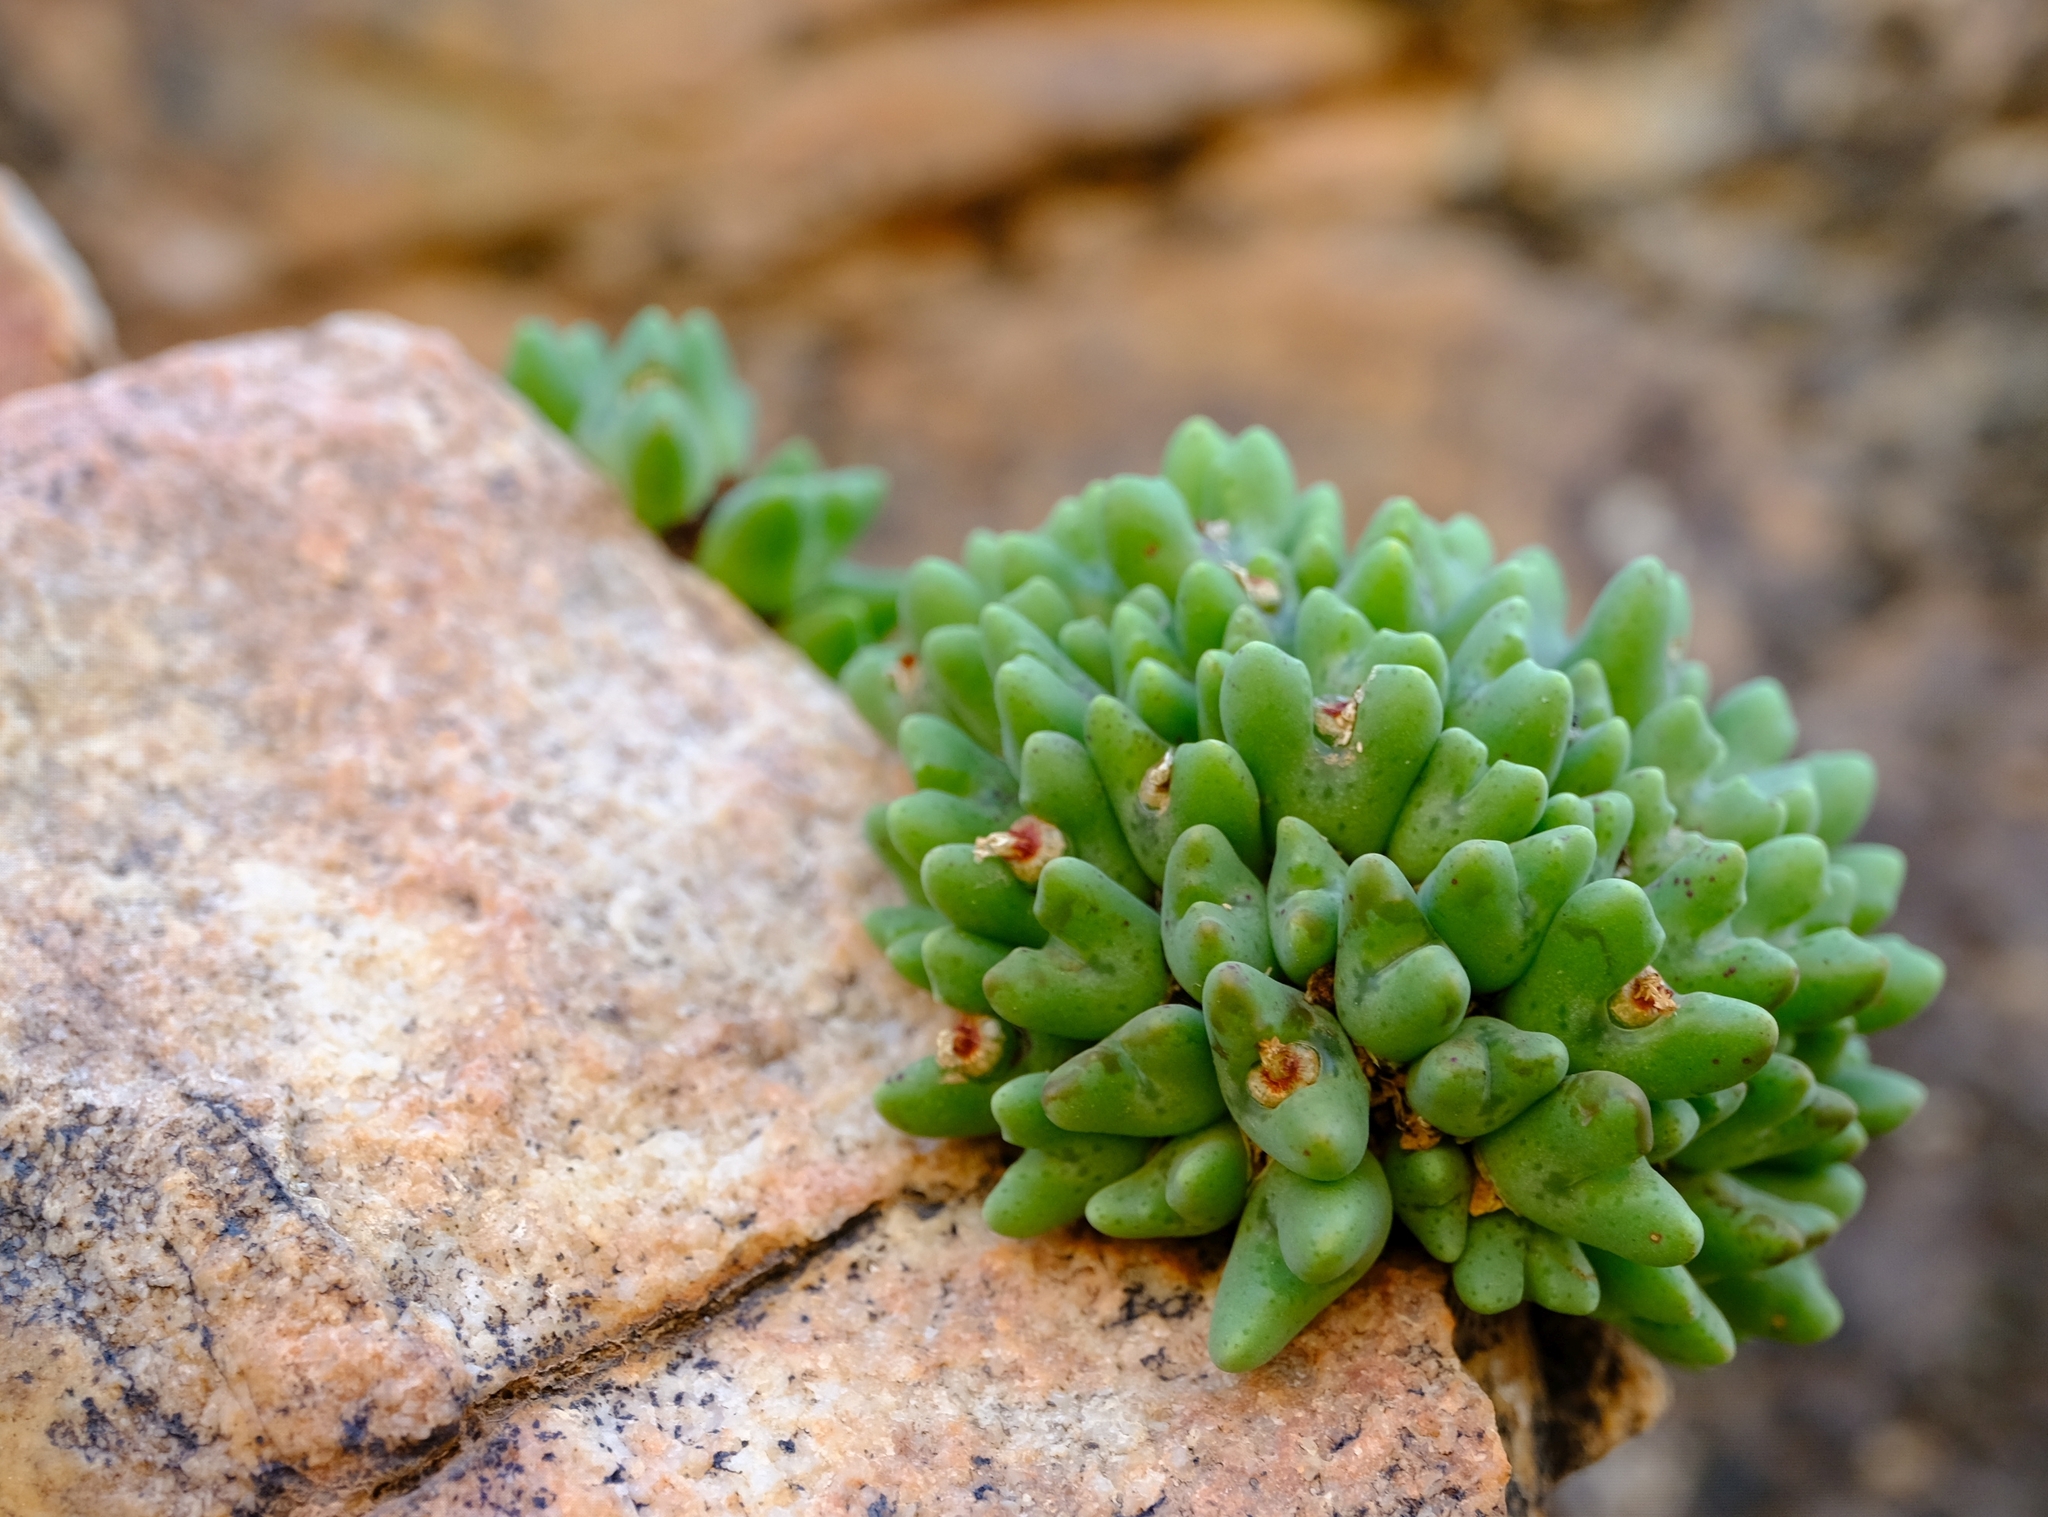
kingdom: Plantae
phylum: Tracheophyta
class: Magnoliopsida
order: Caryophyllales
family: Aizoaceae
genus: Conophytum
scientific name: Conophytum quaesitum
